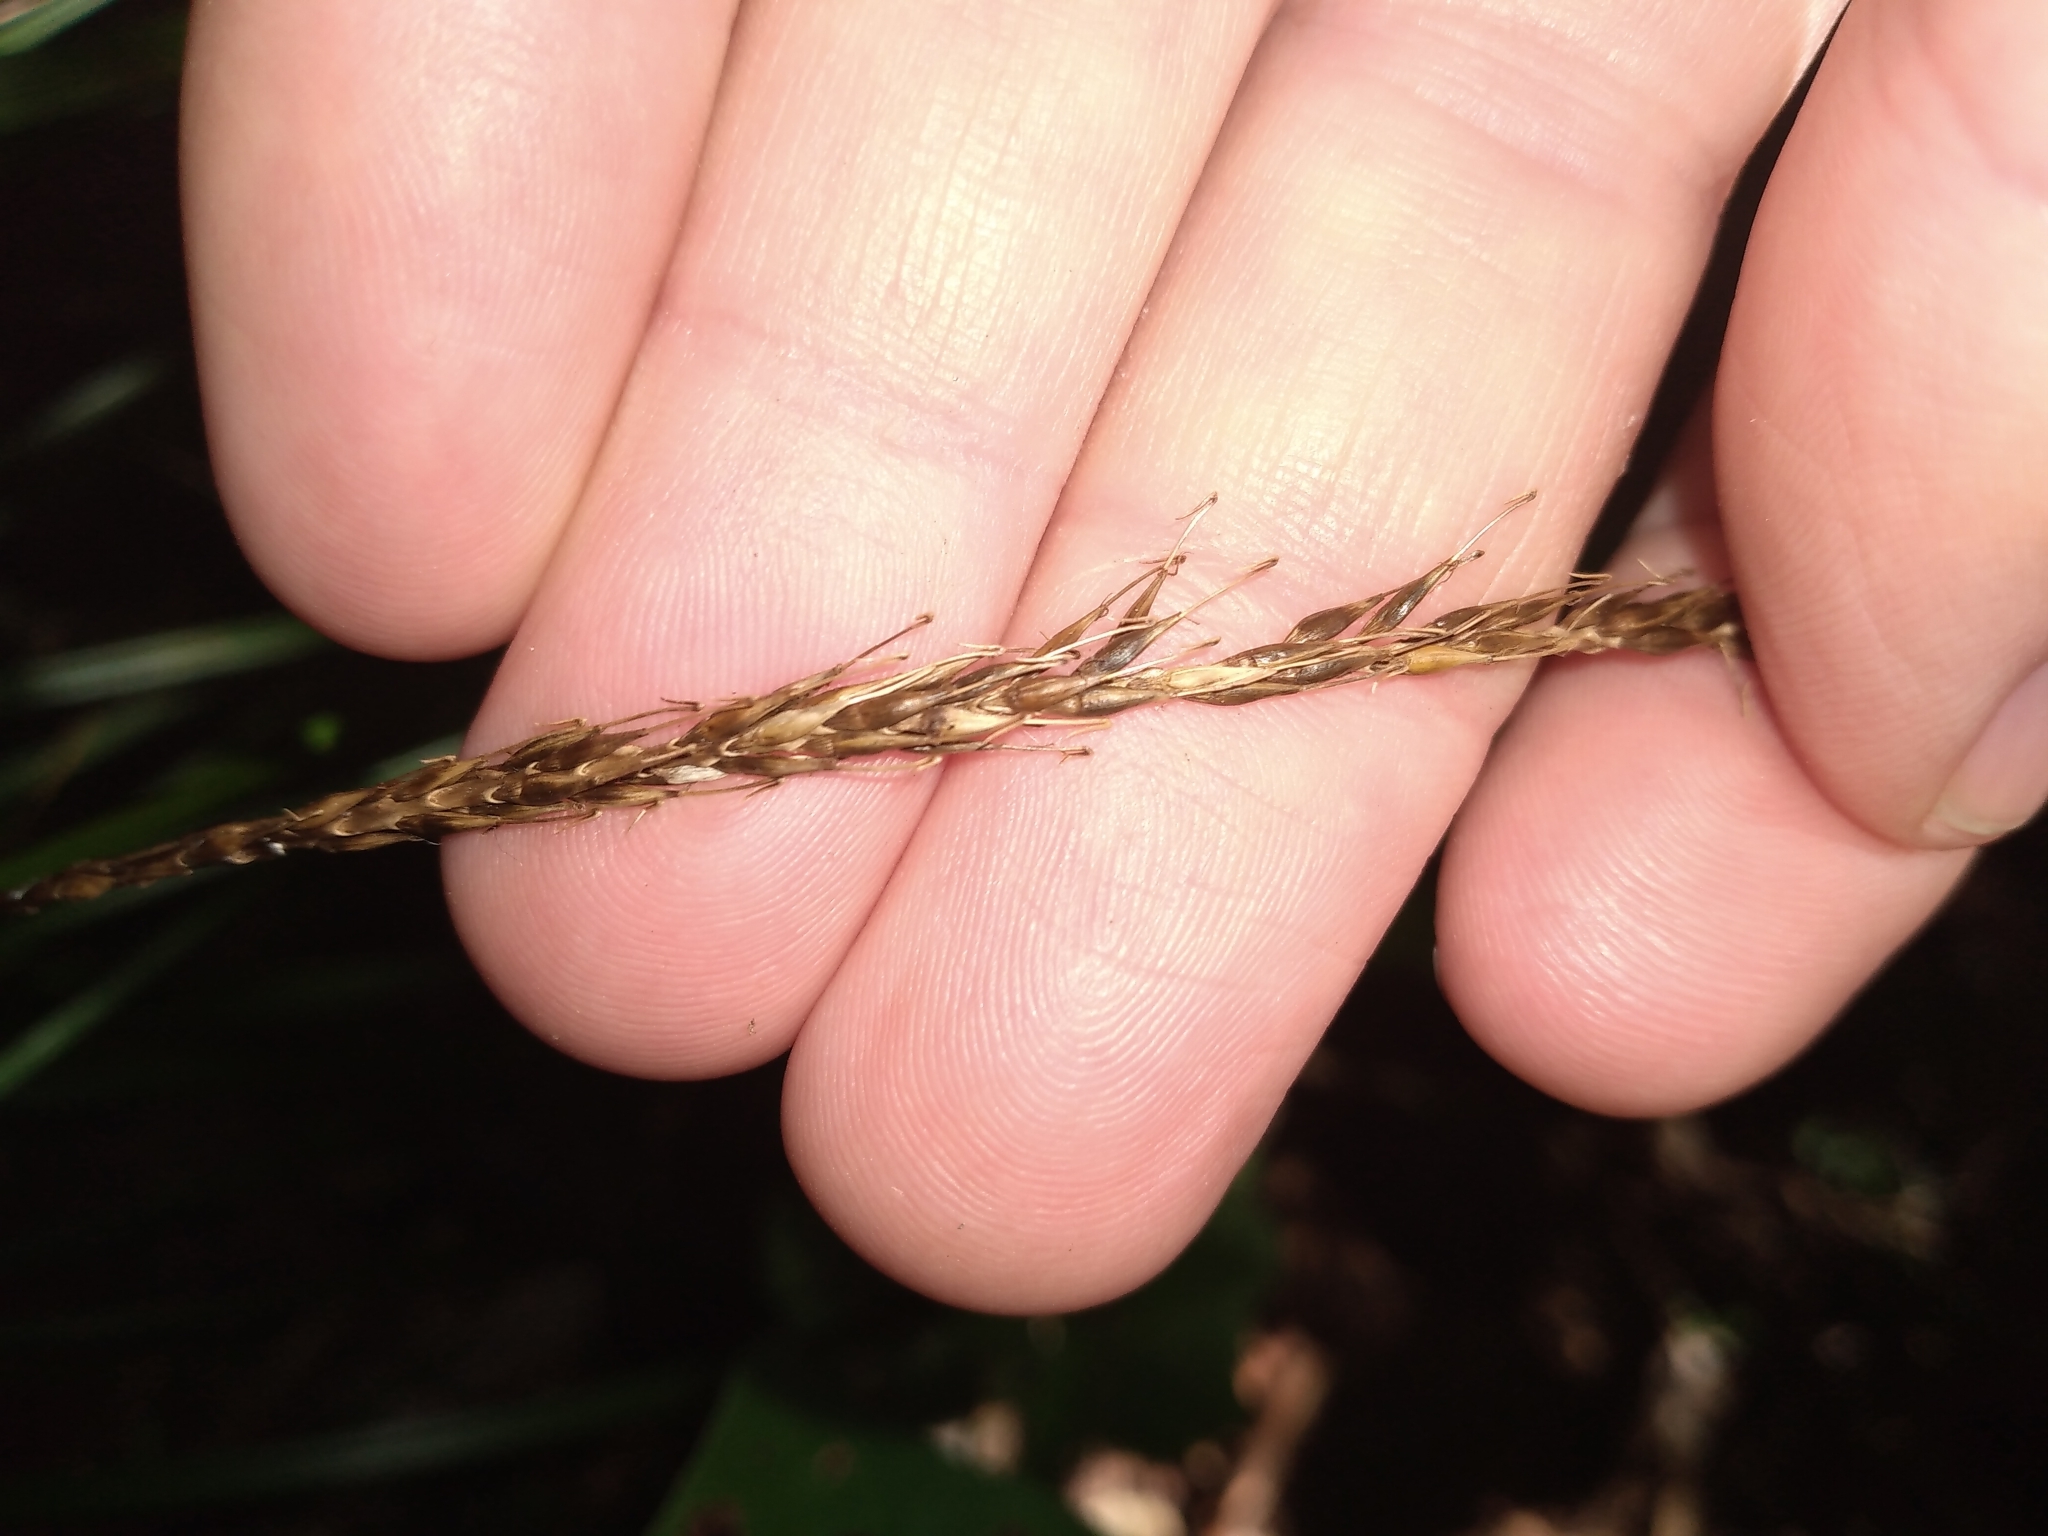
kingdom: Plantae
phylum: Tracheophyta
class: Liliopsida
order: Poales
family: Cyperaceae
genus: Carex
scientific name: Carex uncinata
